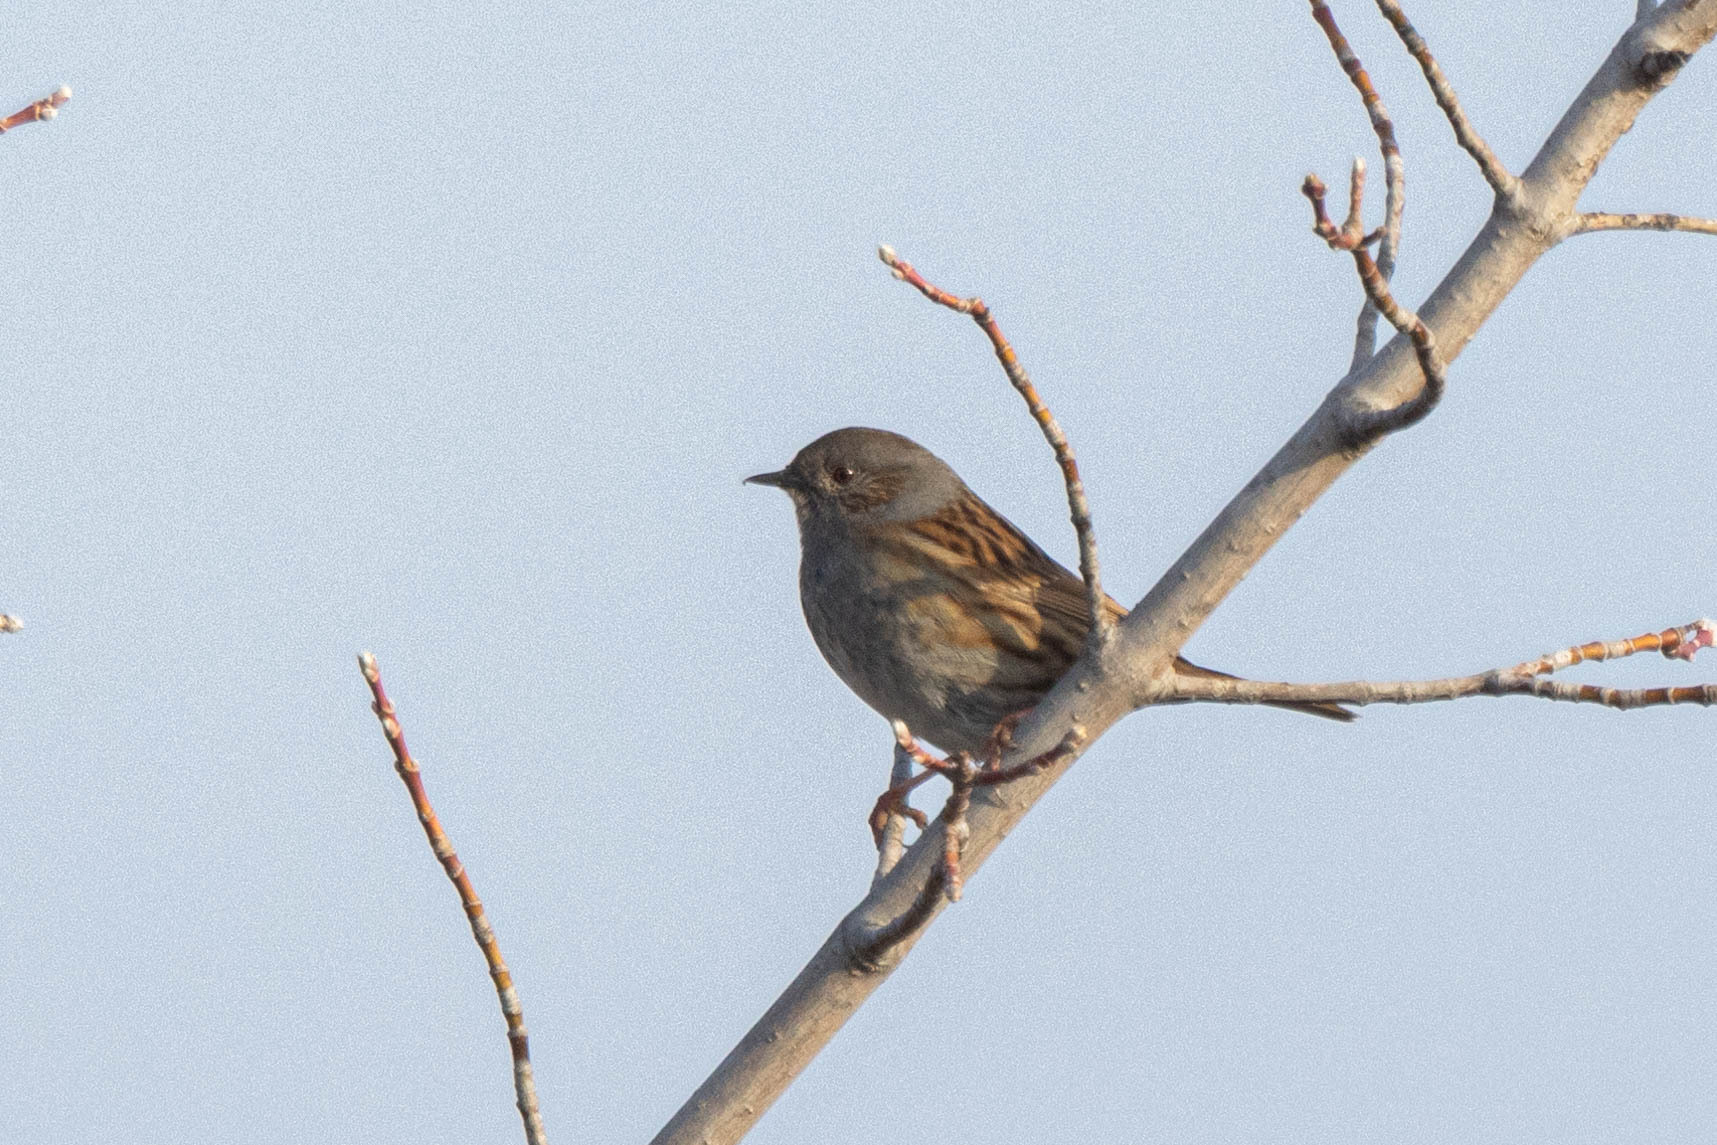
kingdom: Animalia
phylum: Chordata
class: Aves
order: Passeriformes
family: Prunellidae
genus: Prunella
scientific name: Prunella modularis
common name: Dunnock
